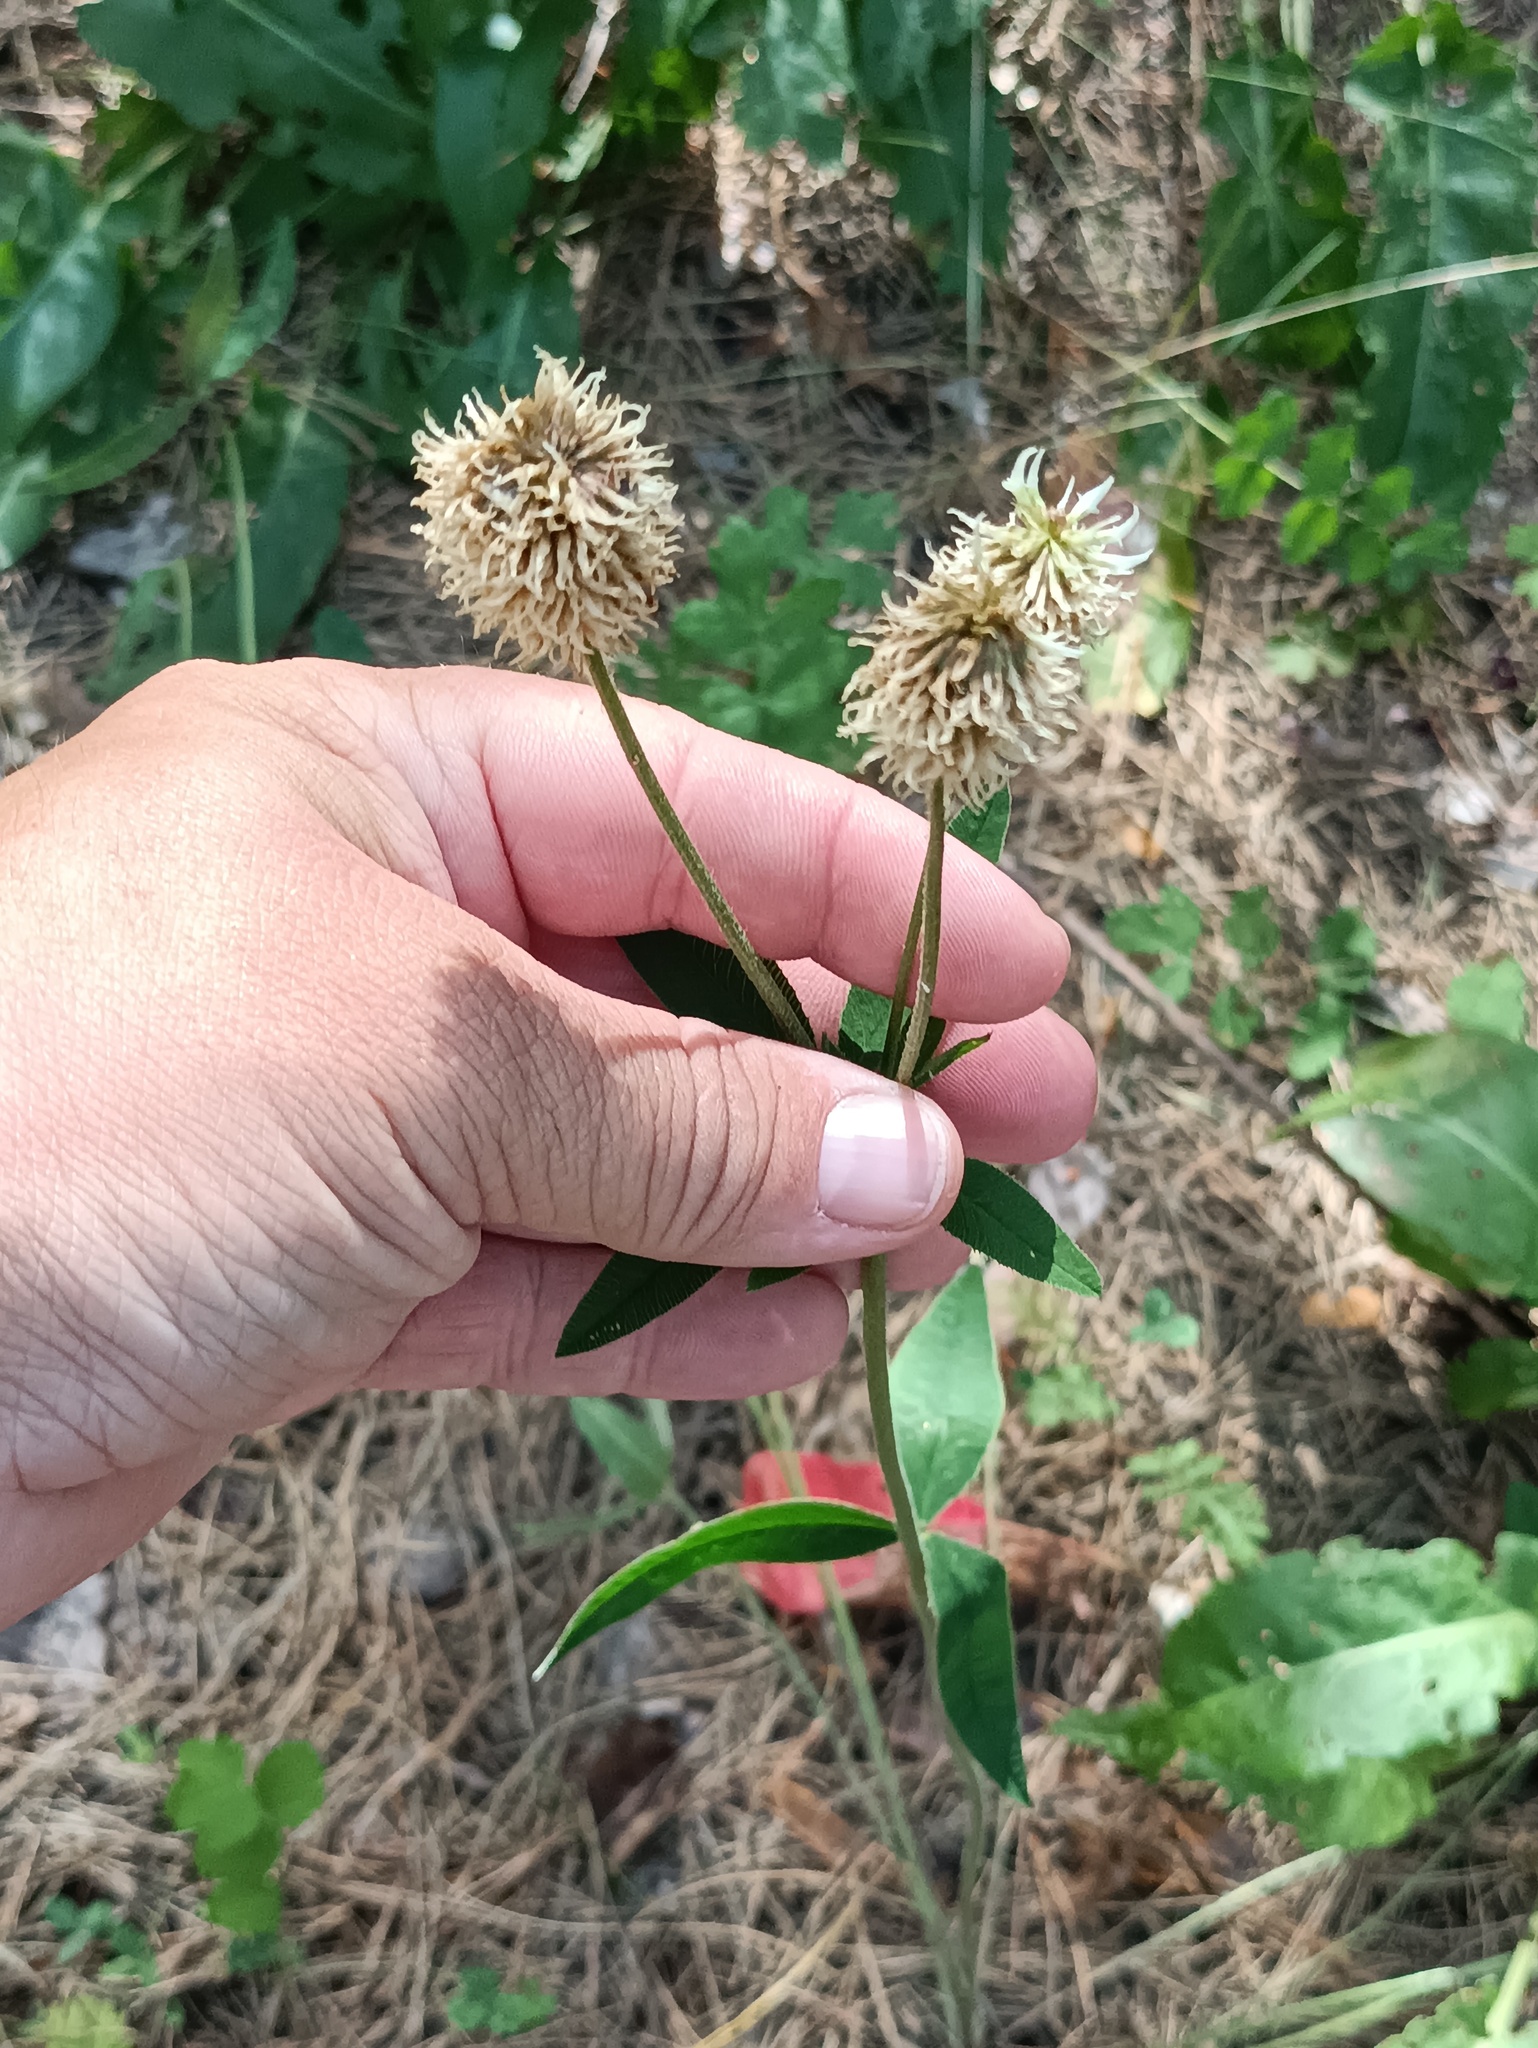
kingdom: Plantae
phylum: Tracheophyta
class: Magnoliopsida
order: Fabales
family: Fabaceae
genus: Trifolium
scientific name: Trifolium montanum
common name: Mountain clover
